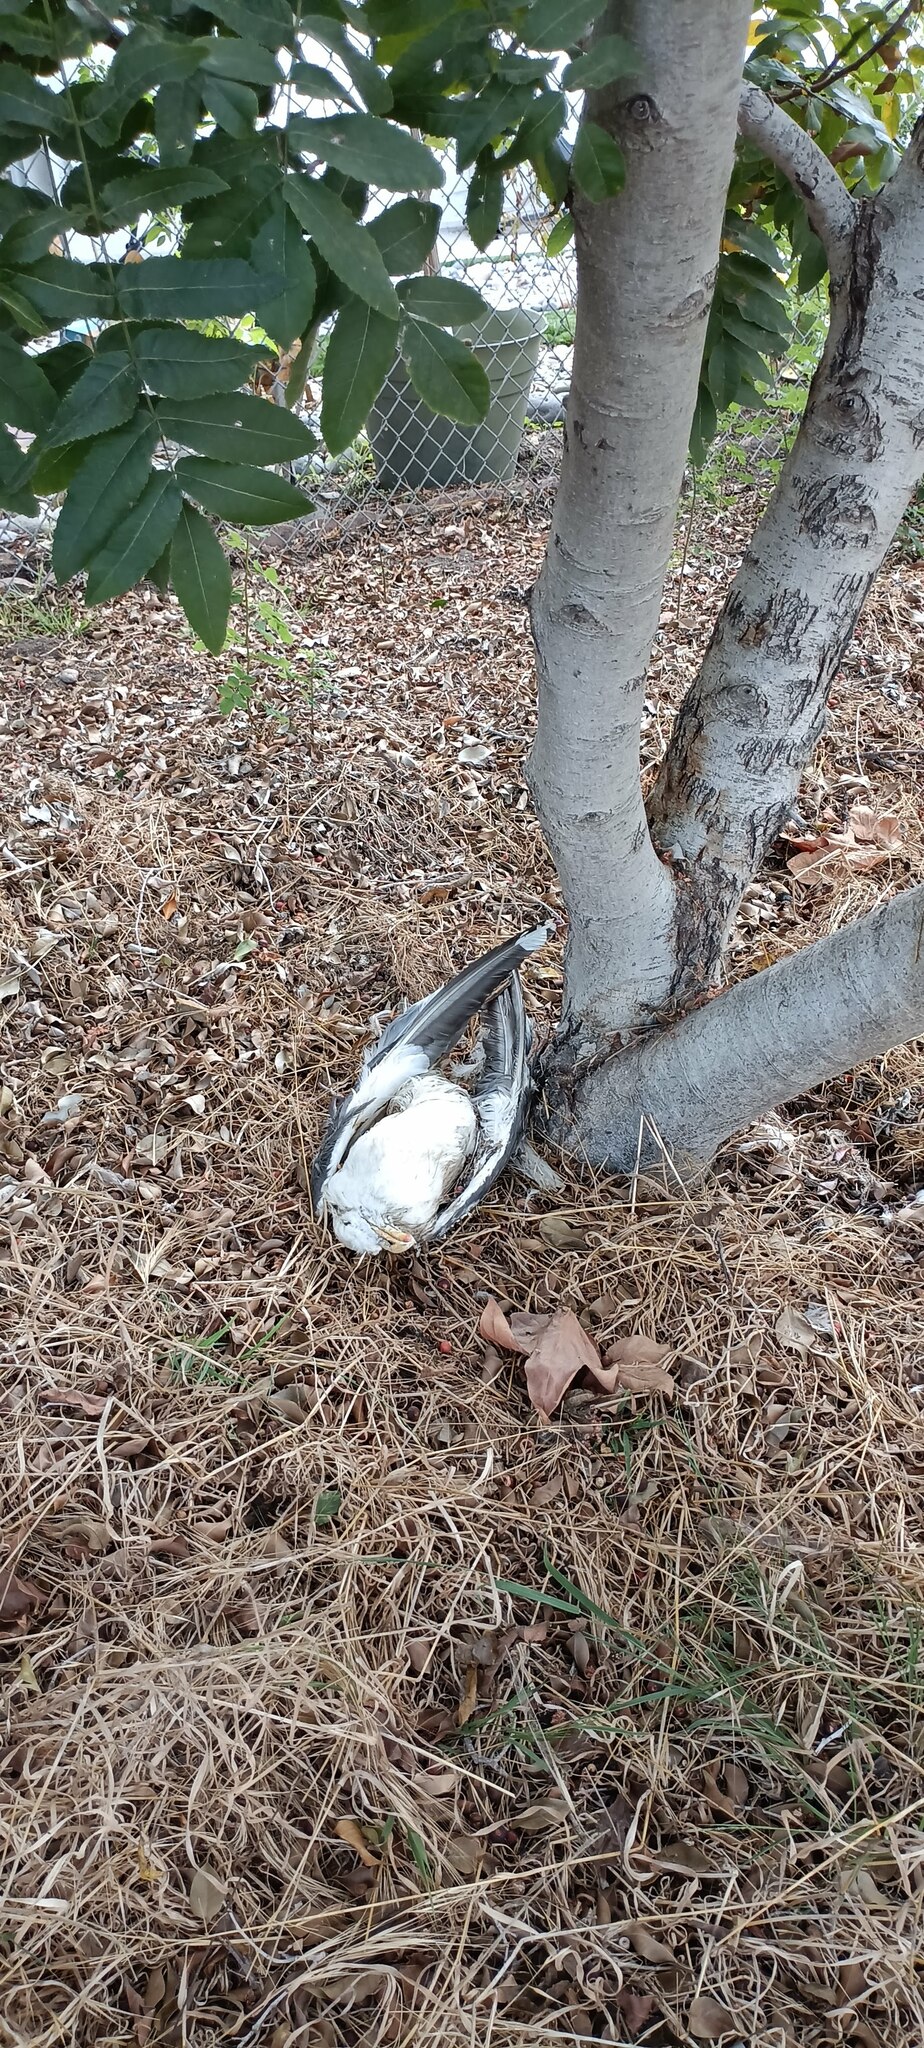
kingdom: Plantae
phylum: Tracheophyta
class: Magnoliopsida
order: Fagales
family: Juglandaceae
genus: Juglans
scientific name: Juglans californica
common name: Southern california black walnut
